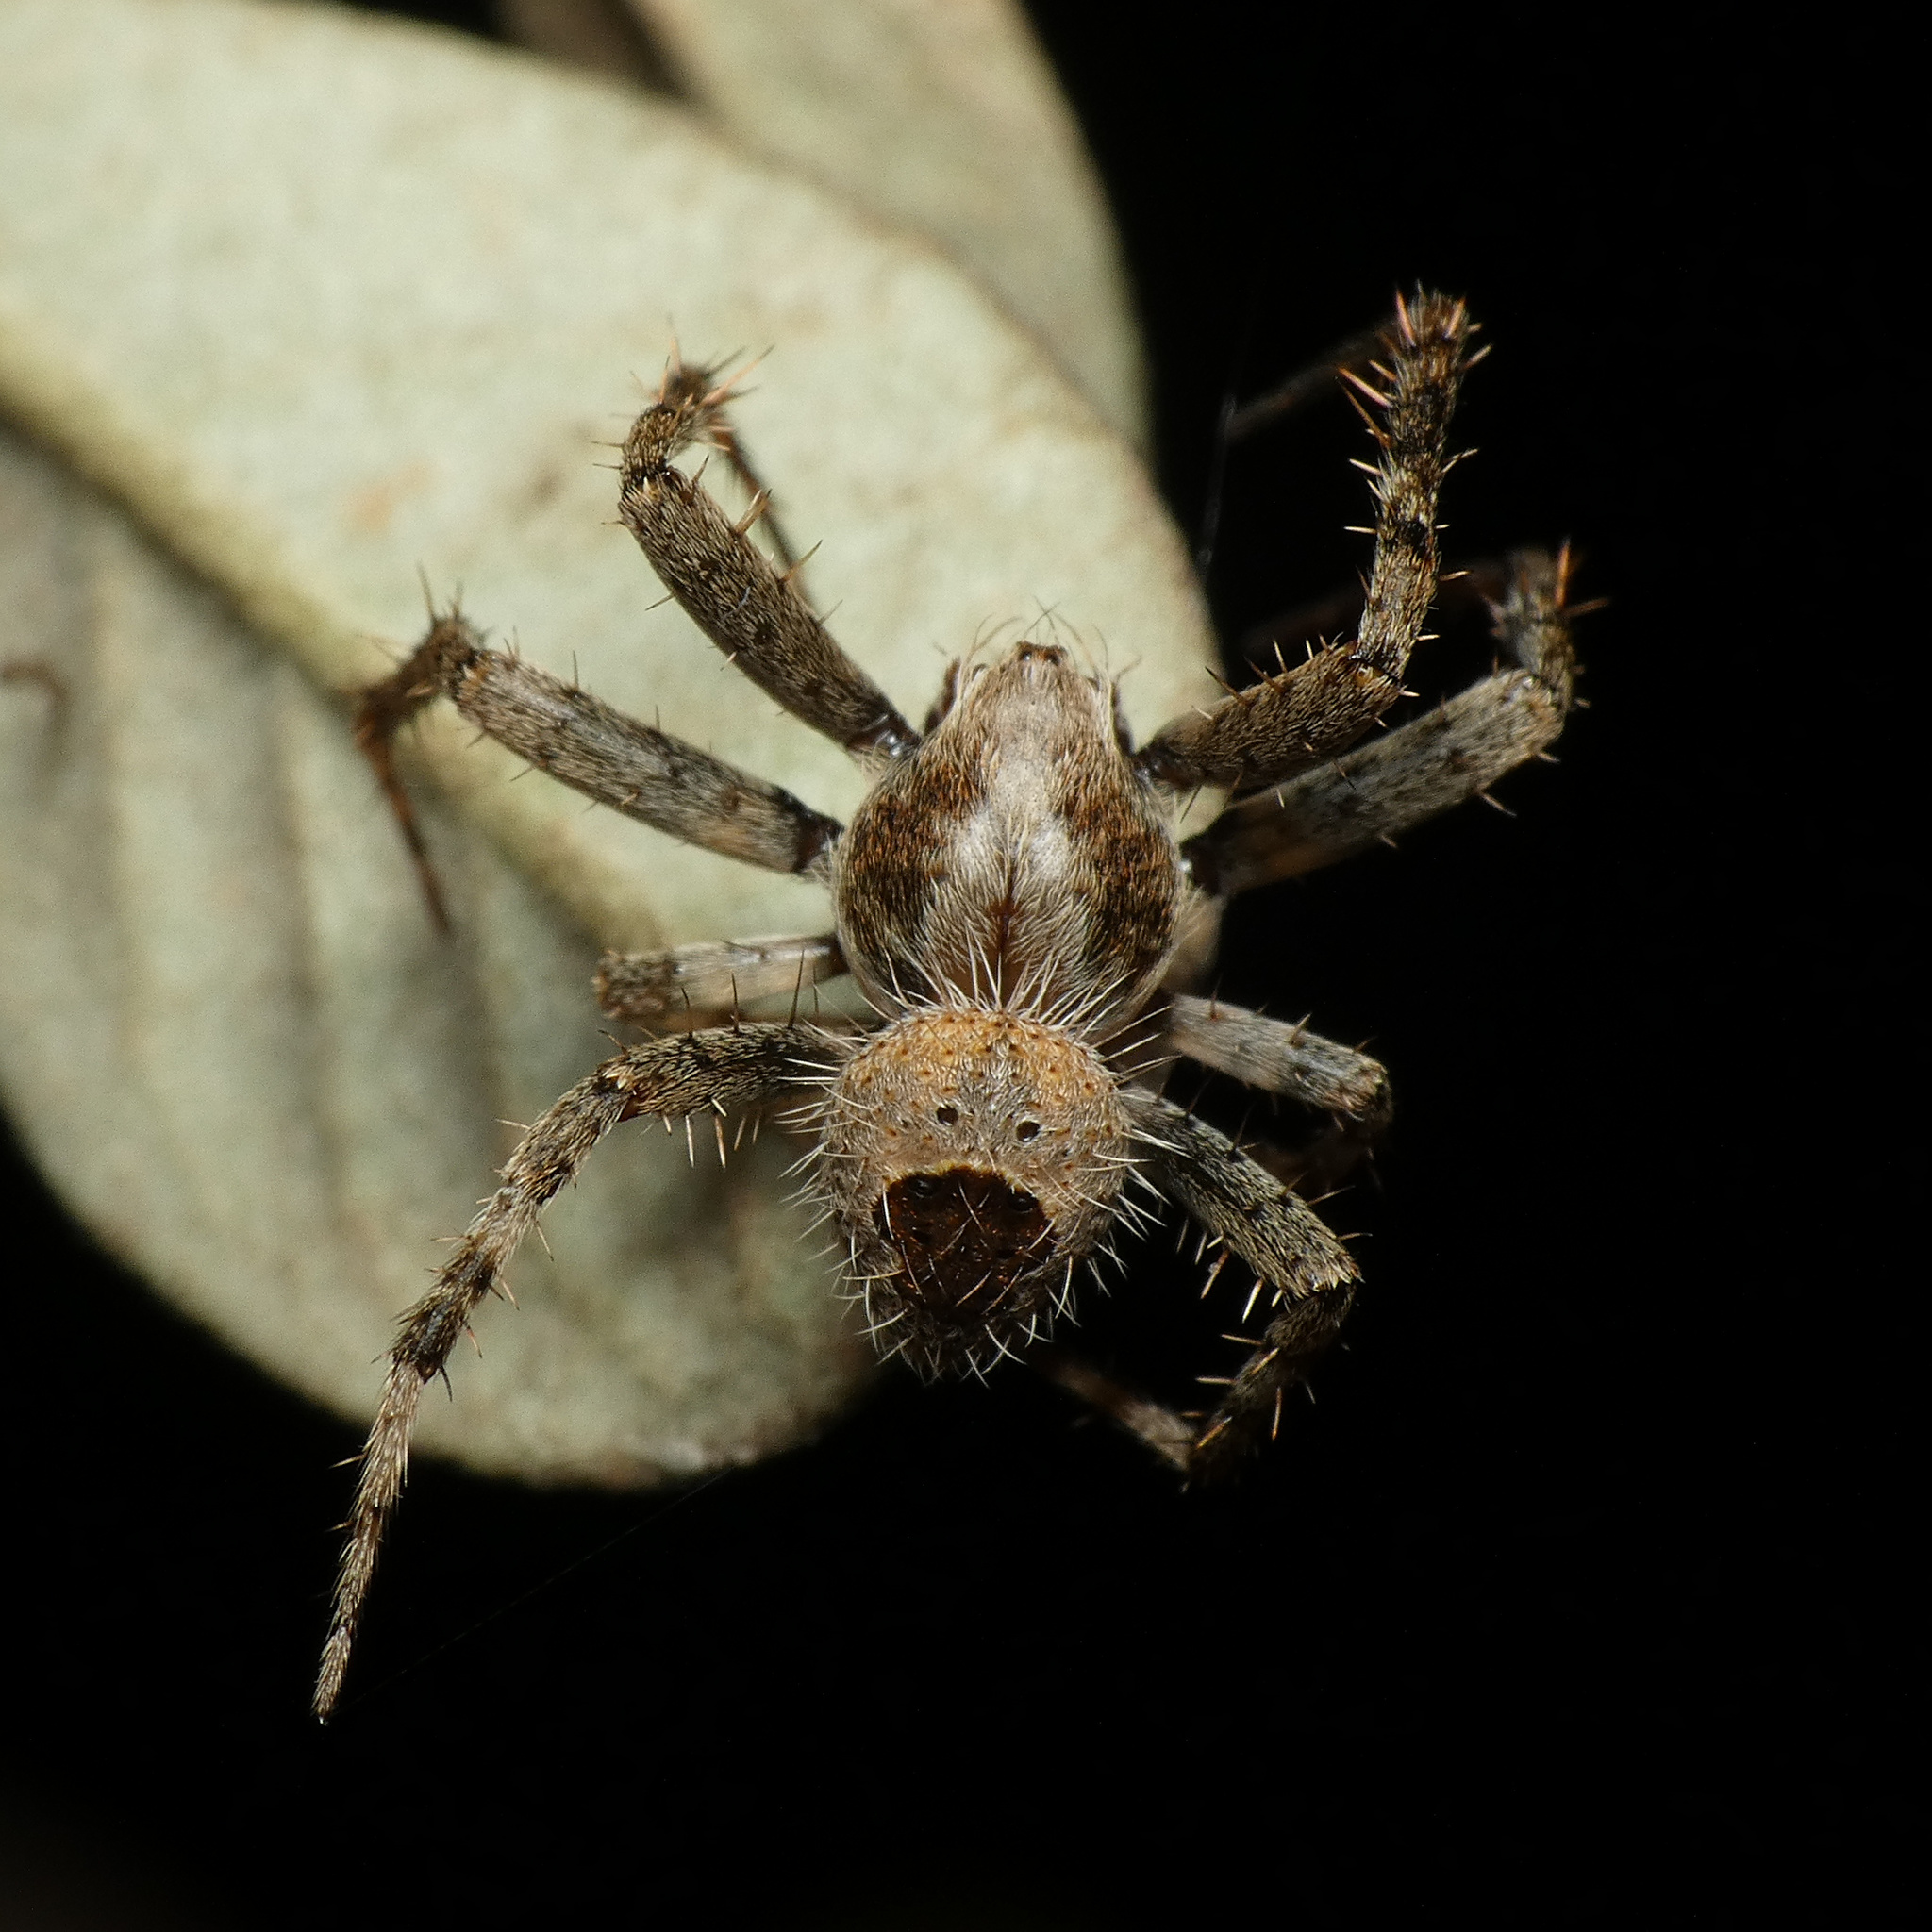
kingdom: Animalia
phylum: Arthropoda
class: Arachnida
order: Araneae
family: Araneidae
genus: Araneus
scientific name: Araneus nigroquadratus
